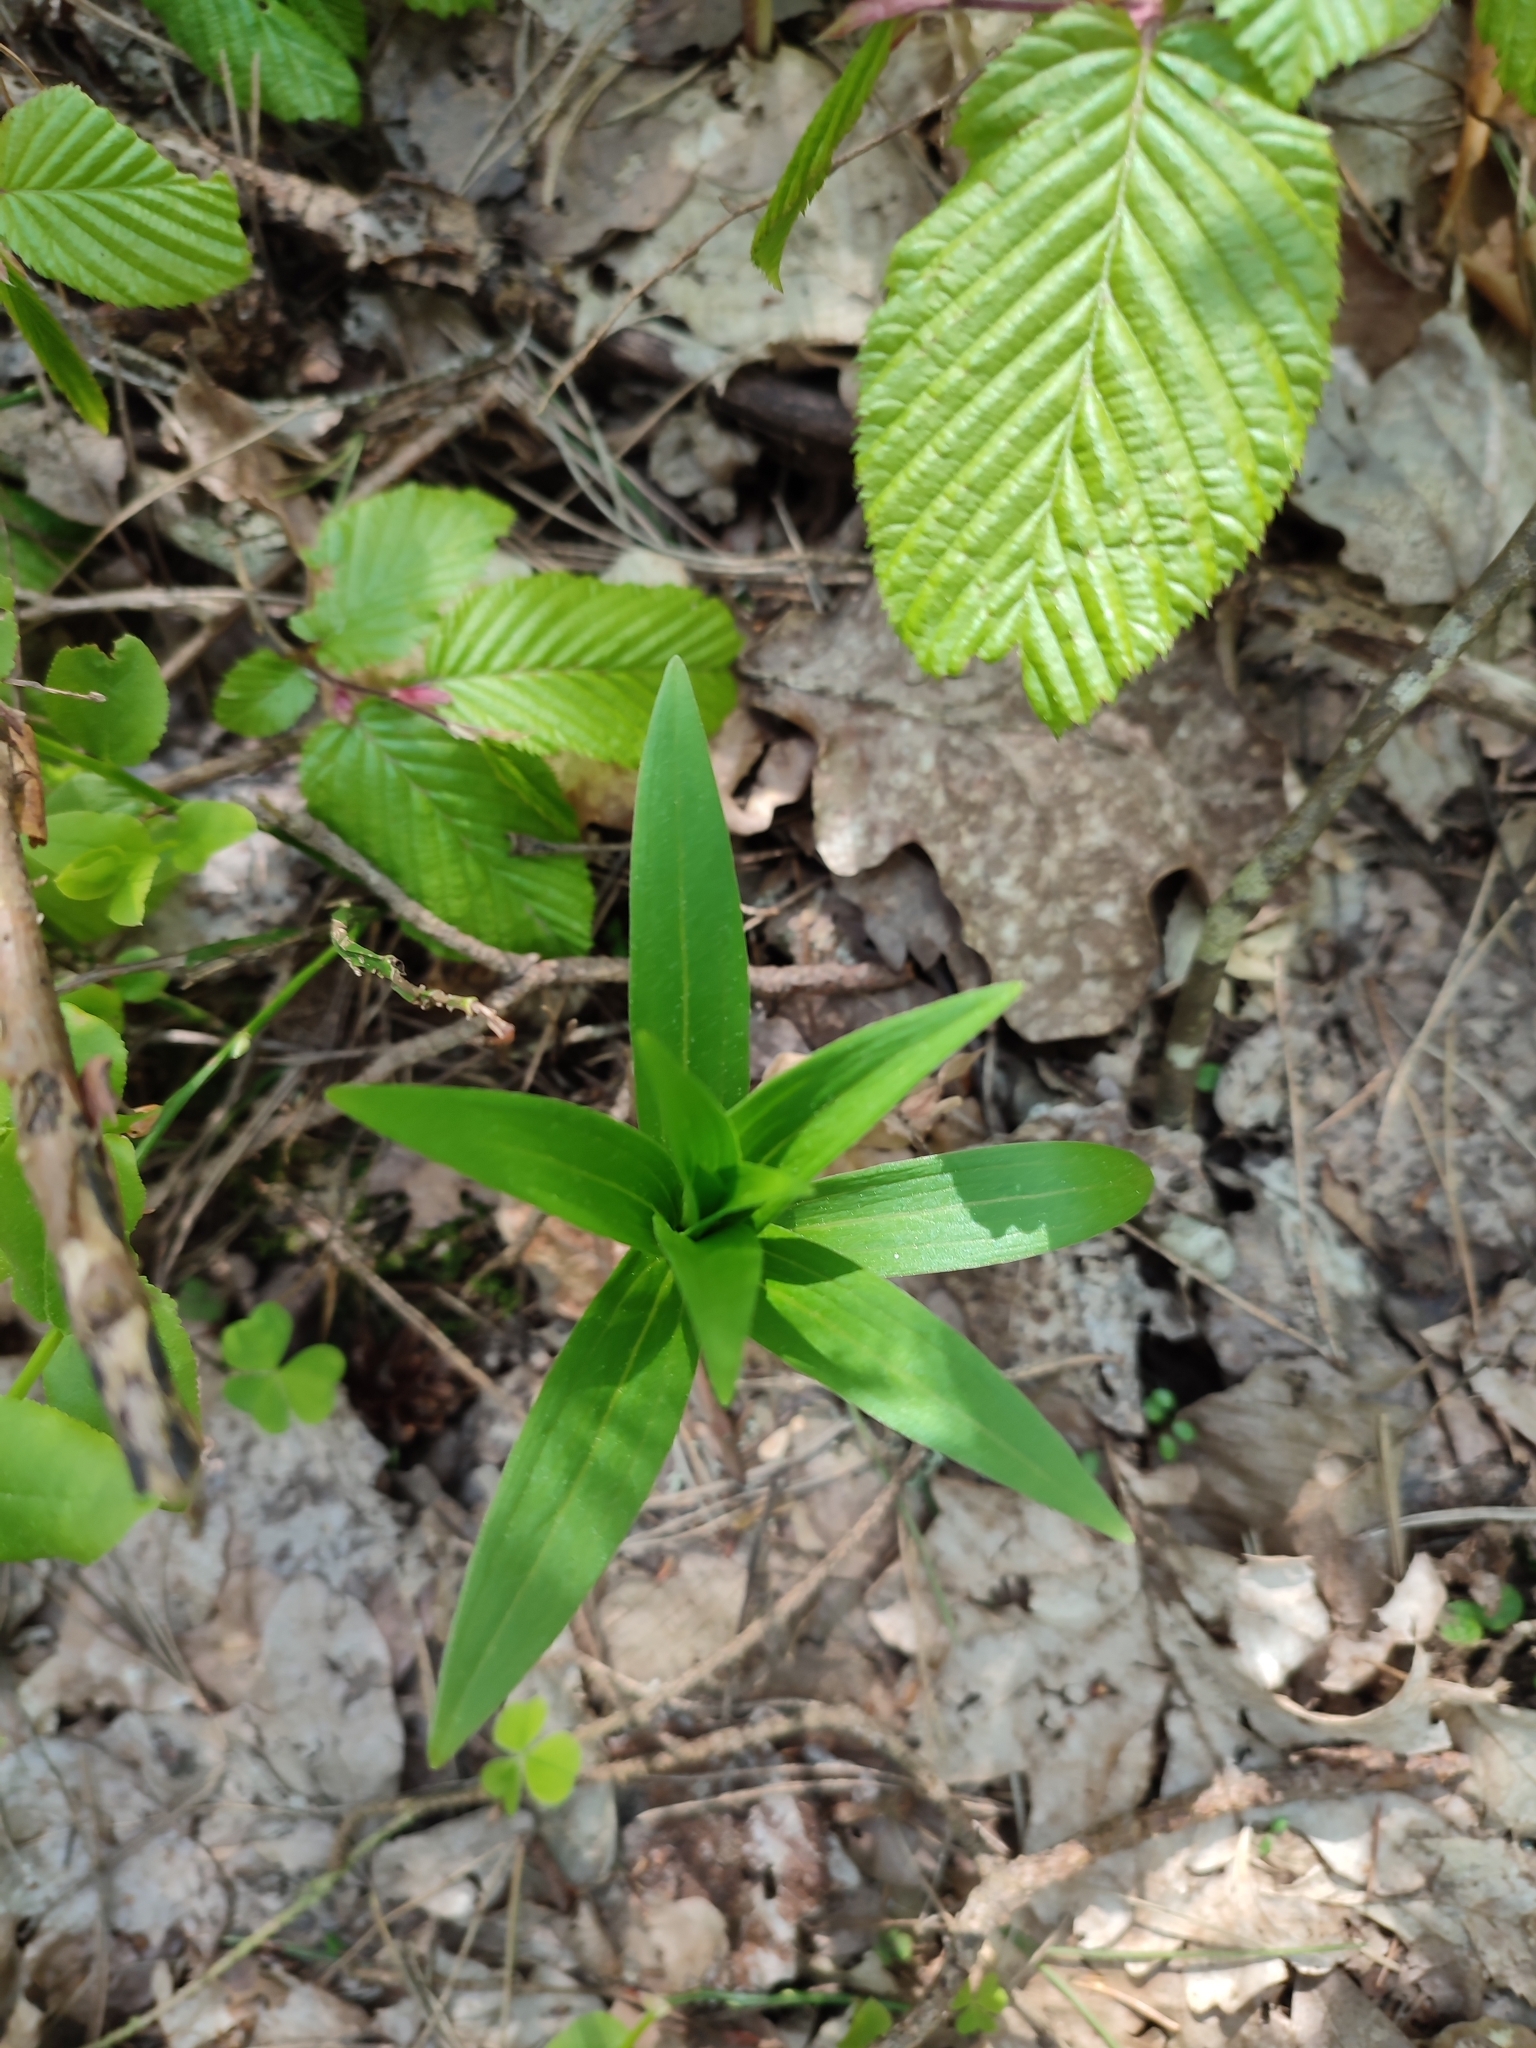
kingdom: Plantae
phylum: Tracheophyta
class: Liliopsida
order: Liliales
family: Liliaceae
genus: Lilium
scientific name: Lilium martagon
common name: Martagon lily
